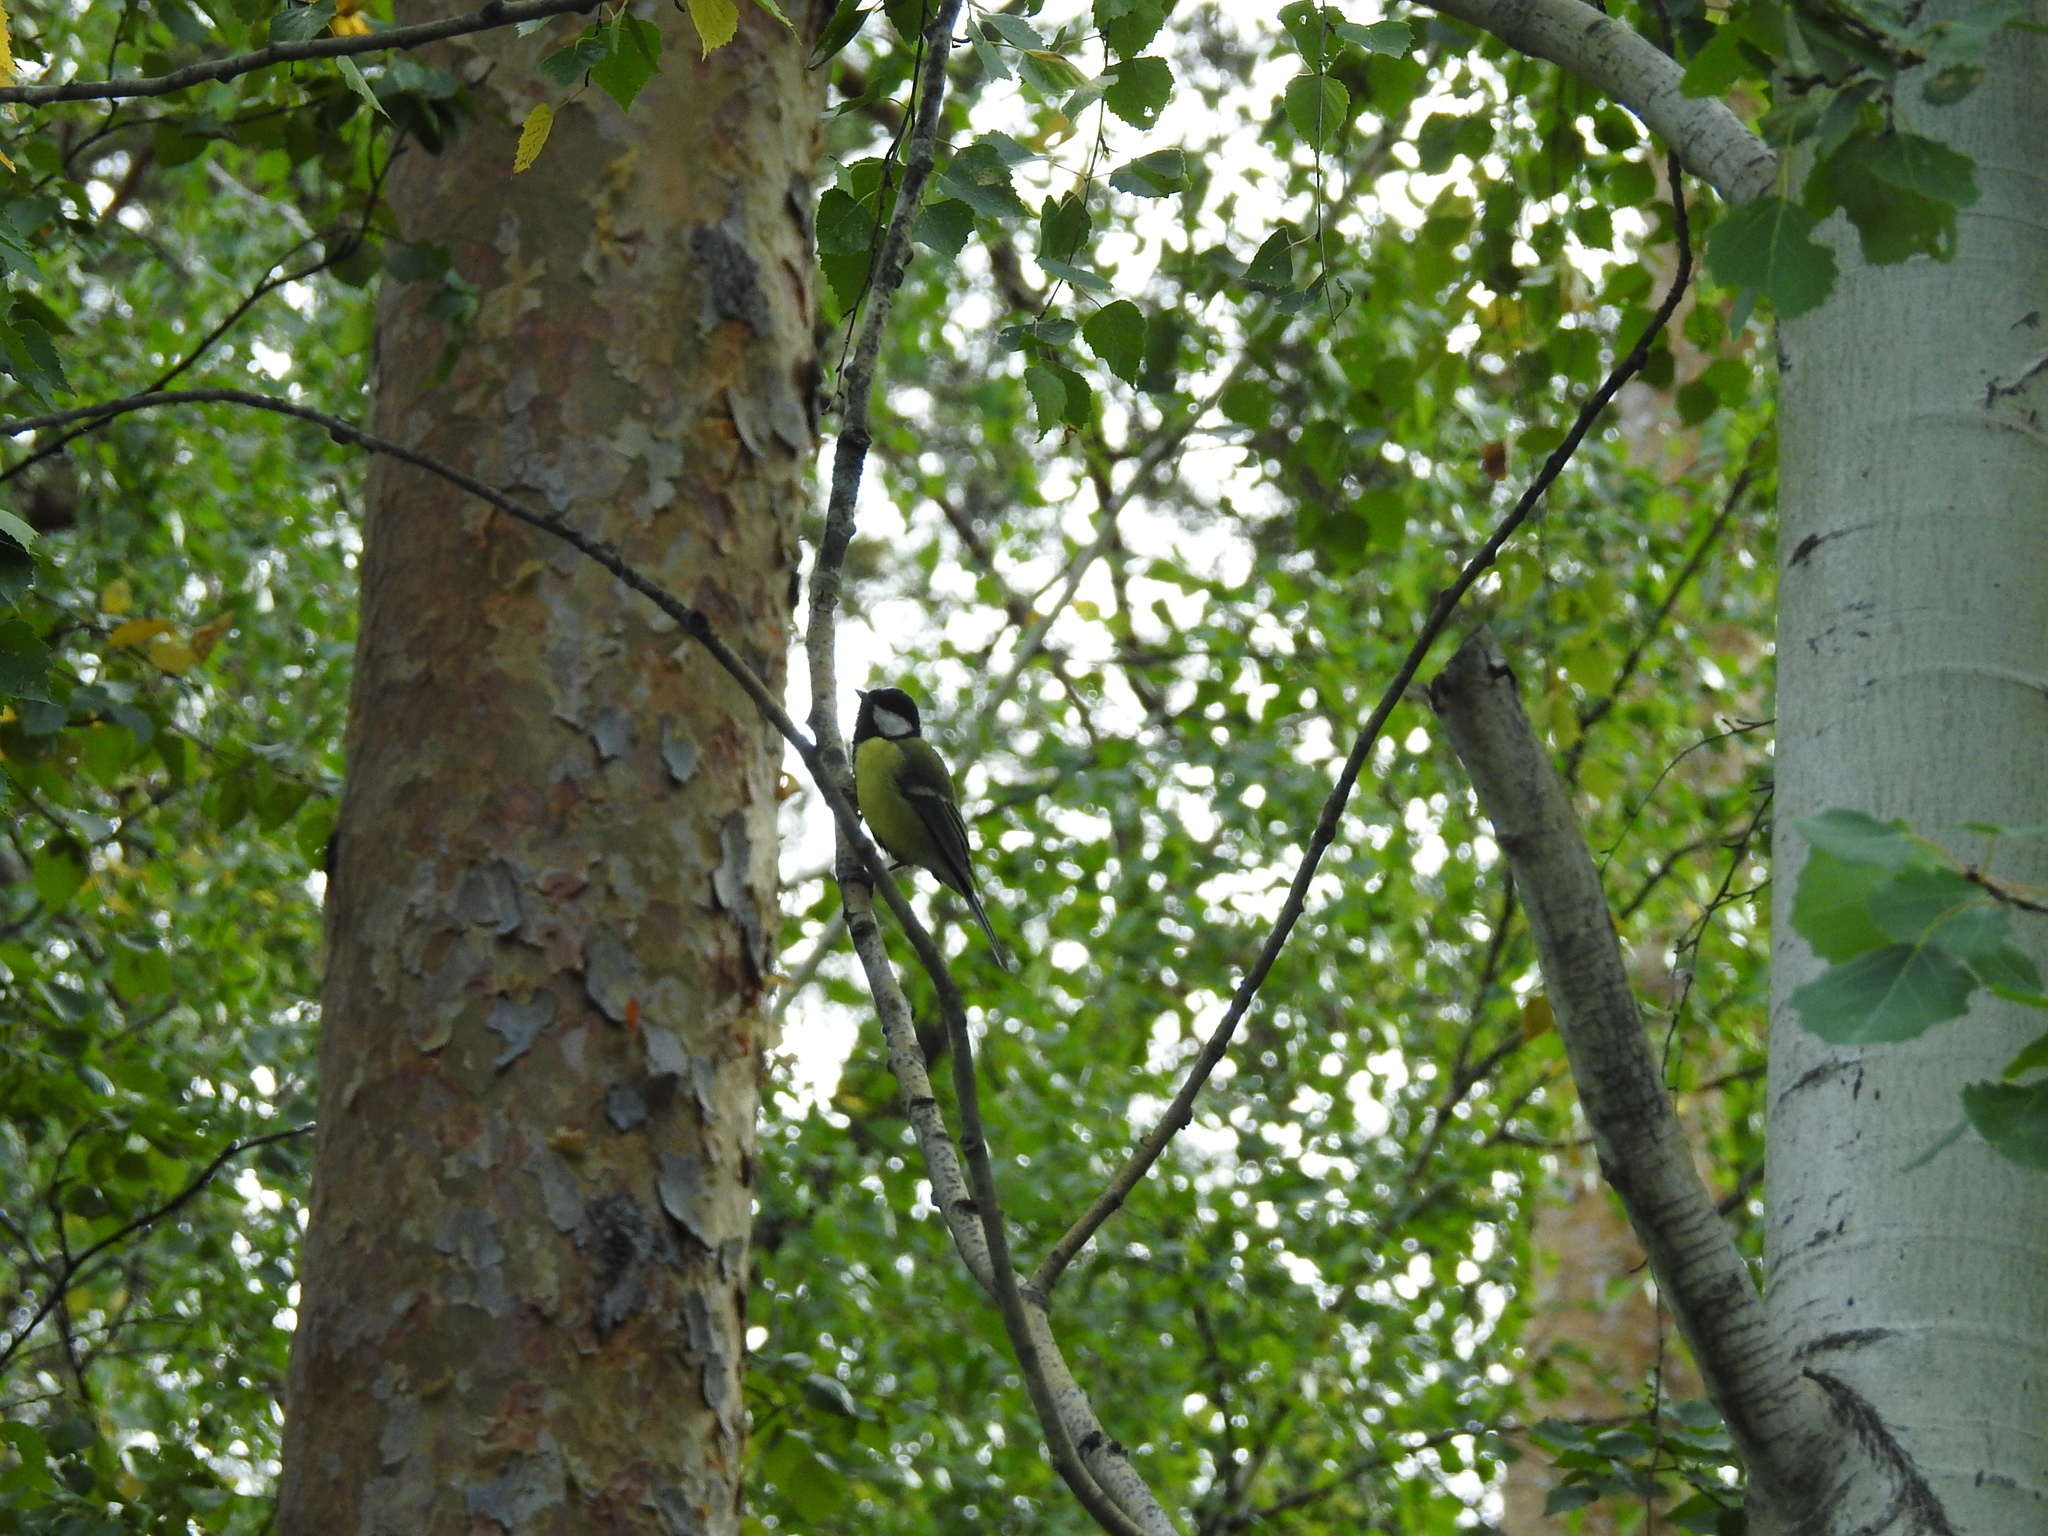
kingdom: Animalia
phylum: Chordata
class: Aves
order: Passeriformes
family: Paridae
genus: Parus
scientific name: Parus major
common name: Great tit
